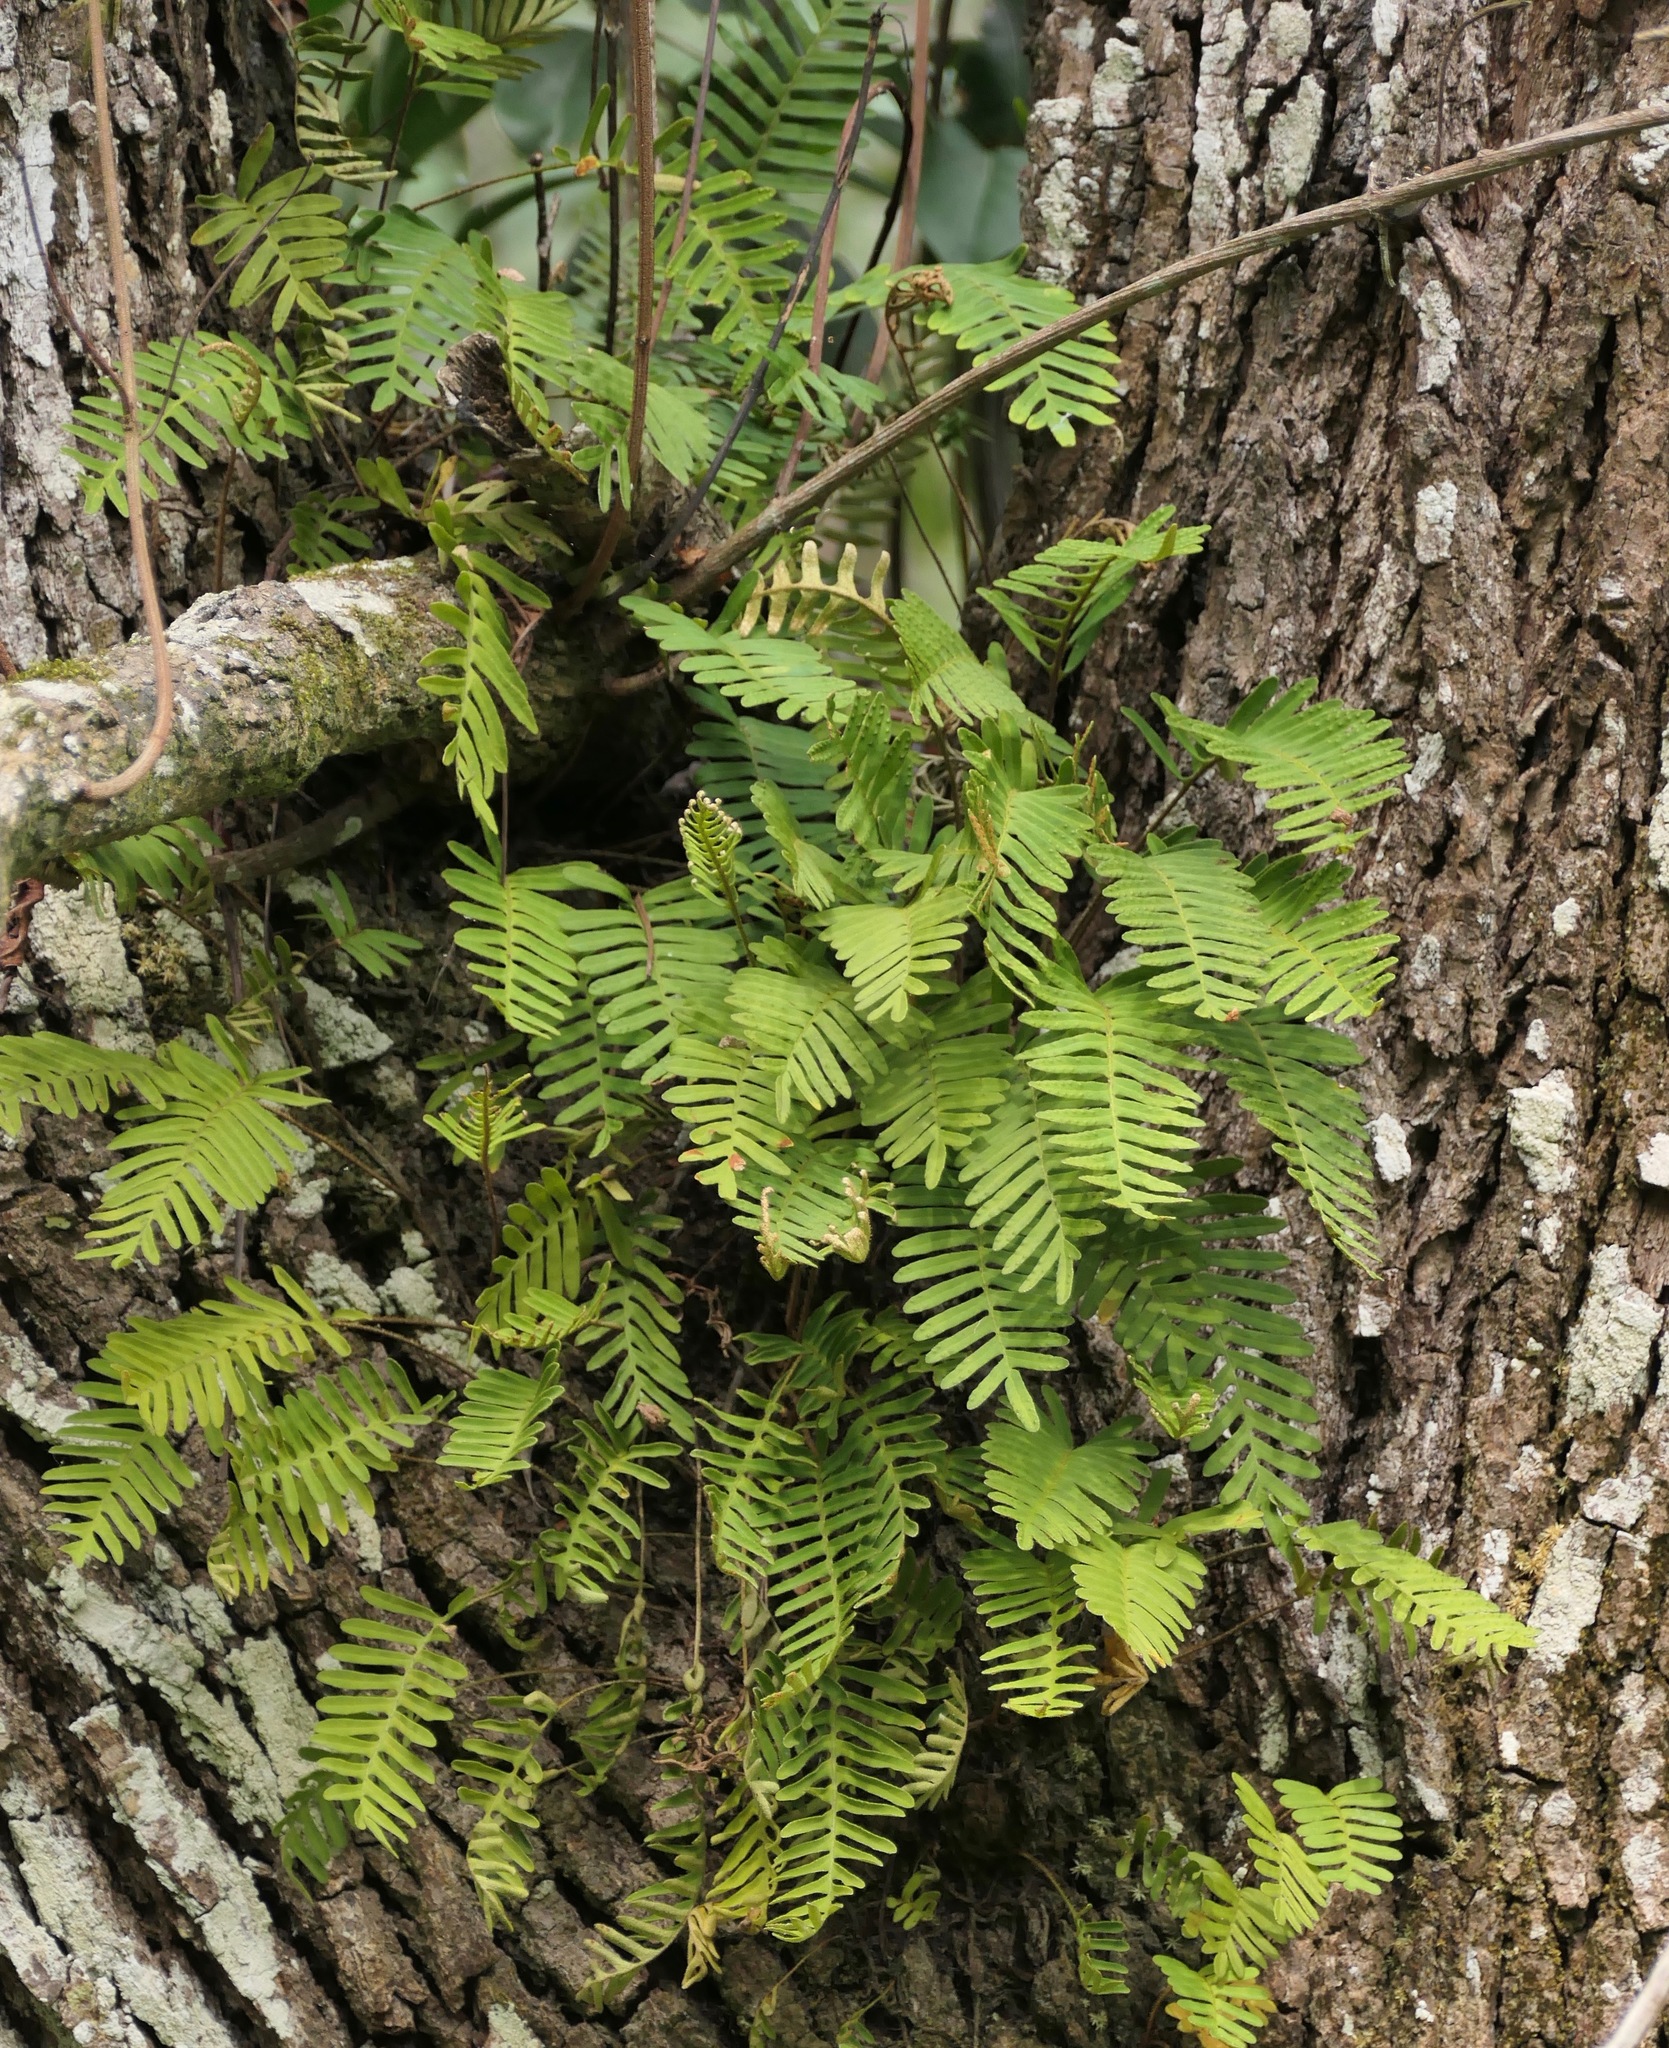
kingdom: Plantae
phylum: Tracheophyta
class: Polypodiopsida
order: Polypodiales
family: Polypodiaceae
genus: Pleopeltis
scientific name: Pleopeltis michauxiana
